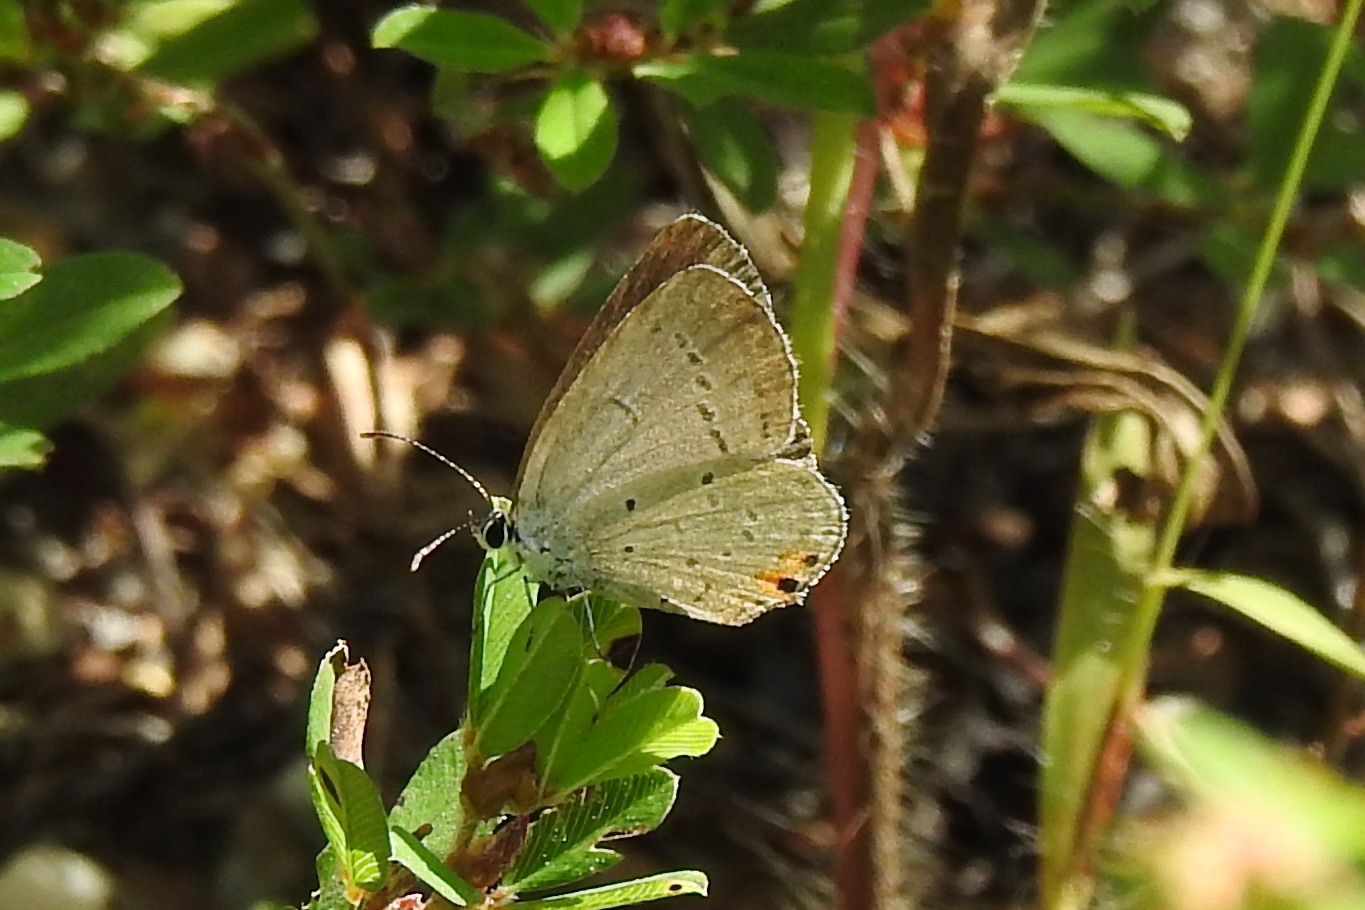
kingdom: Animalia
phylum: Arthropoda
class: Insecta
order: Lepidoptera
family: Lycaenidae
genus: Elkalyce
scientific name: Elkalyce comyntas
